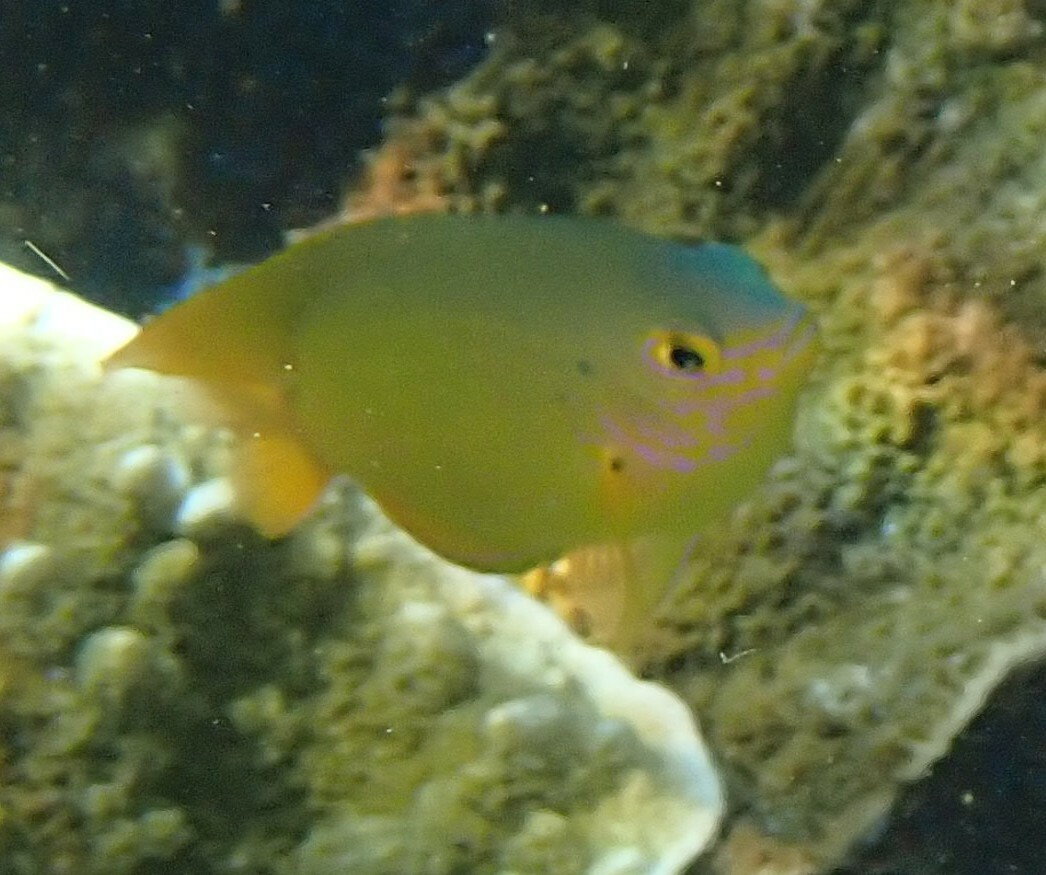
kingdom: Animalia
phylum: Chordata
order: Perciformes
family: Pomacentridae
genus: Pomacentrus
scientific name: Pomacentrus moluccensis
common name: Lemon damsel
